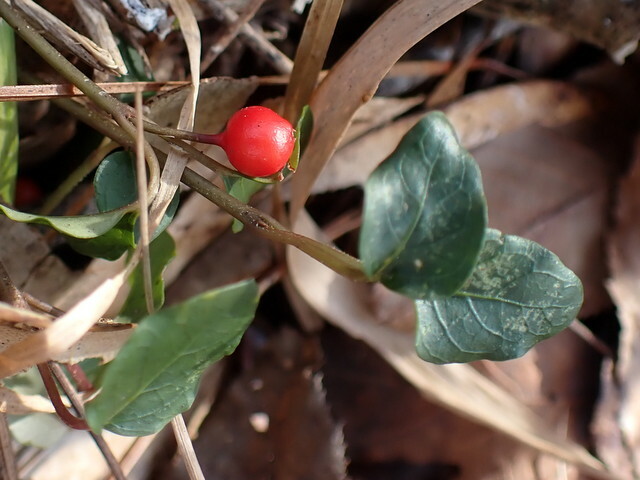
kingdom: Plantae
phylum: Tracheophyta
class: Magnoliopsida
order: Gentianales
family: Rubiaceae
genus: Mitchella
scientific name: Mitchella repens
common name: Partridge-berry
